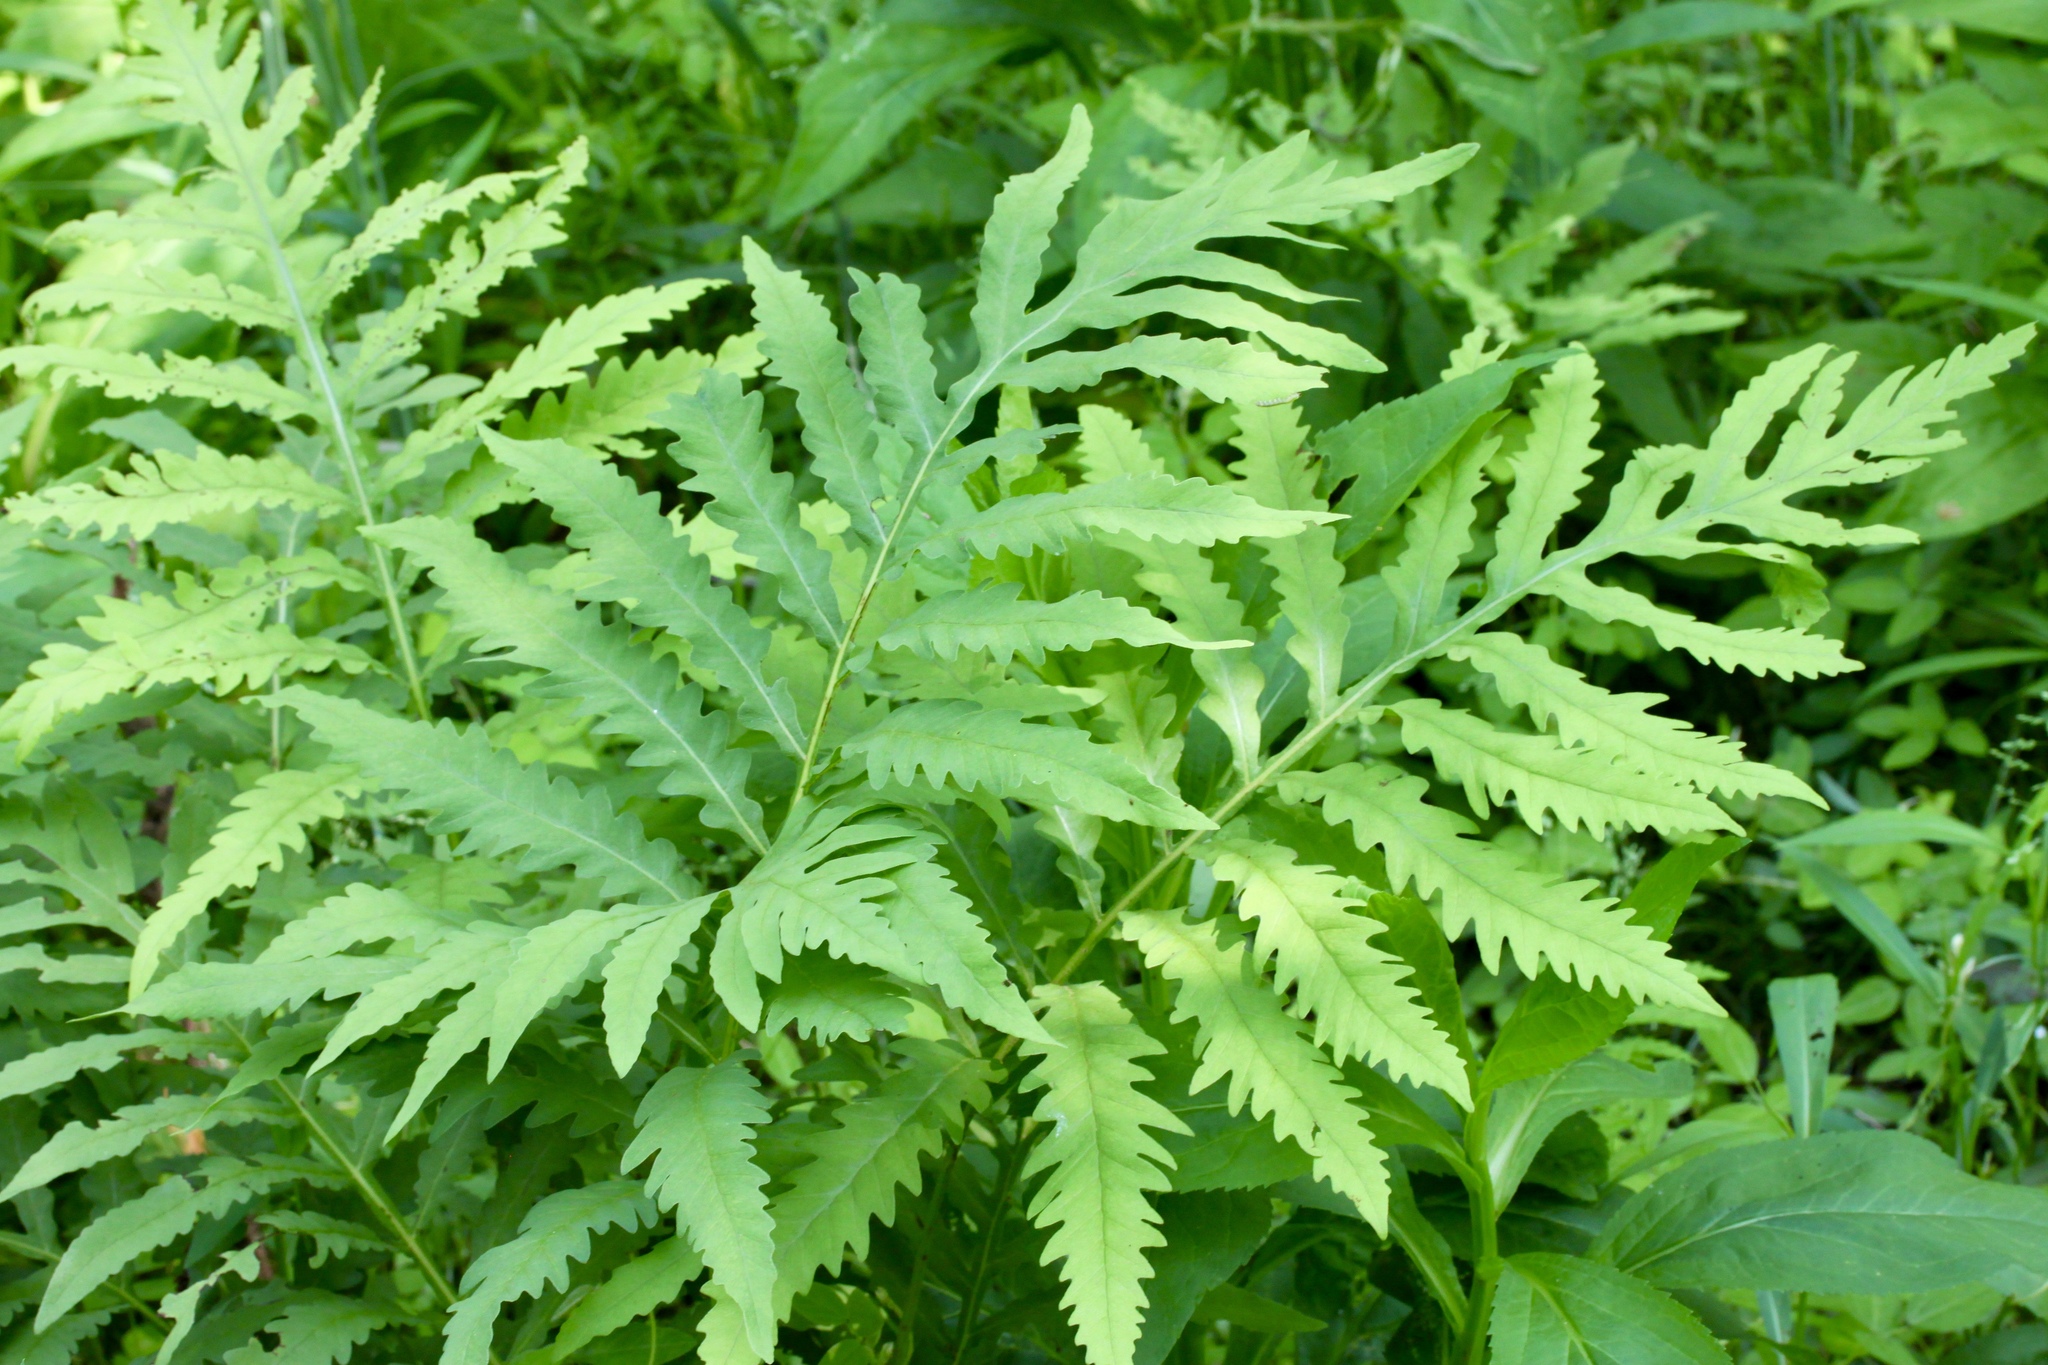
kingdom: Plantae
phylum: Tracheophyta
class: Polypodiopsida
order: Polypodiales
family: Onocleaceae
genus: Onoclea
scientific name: Onoclea sensibilis
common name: Sensitive fern
